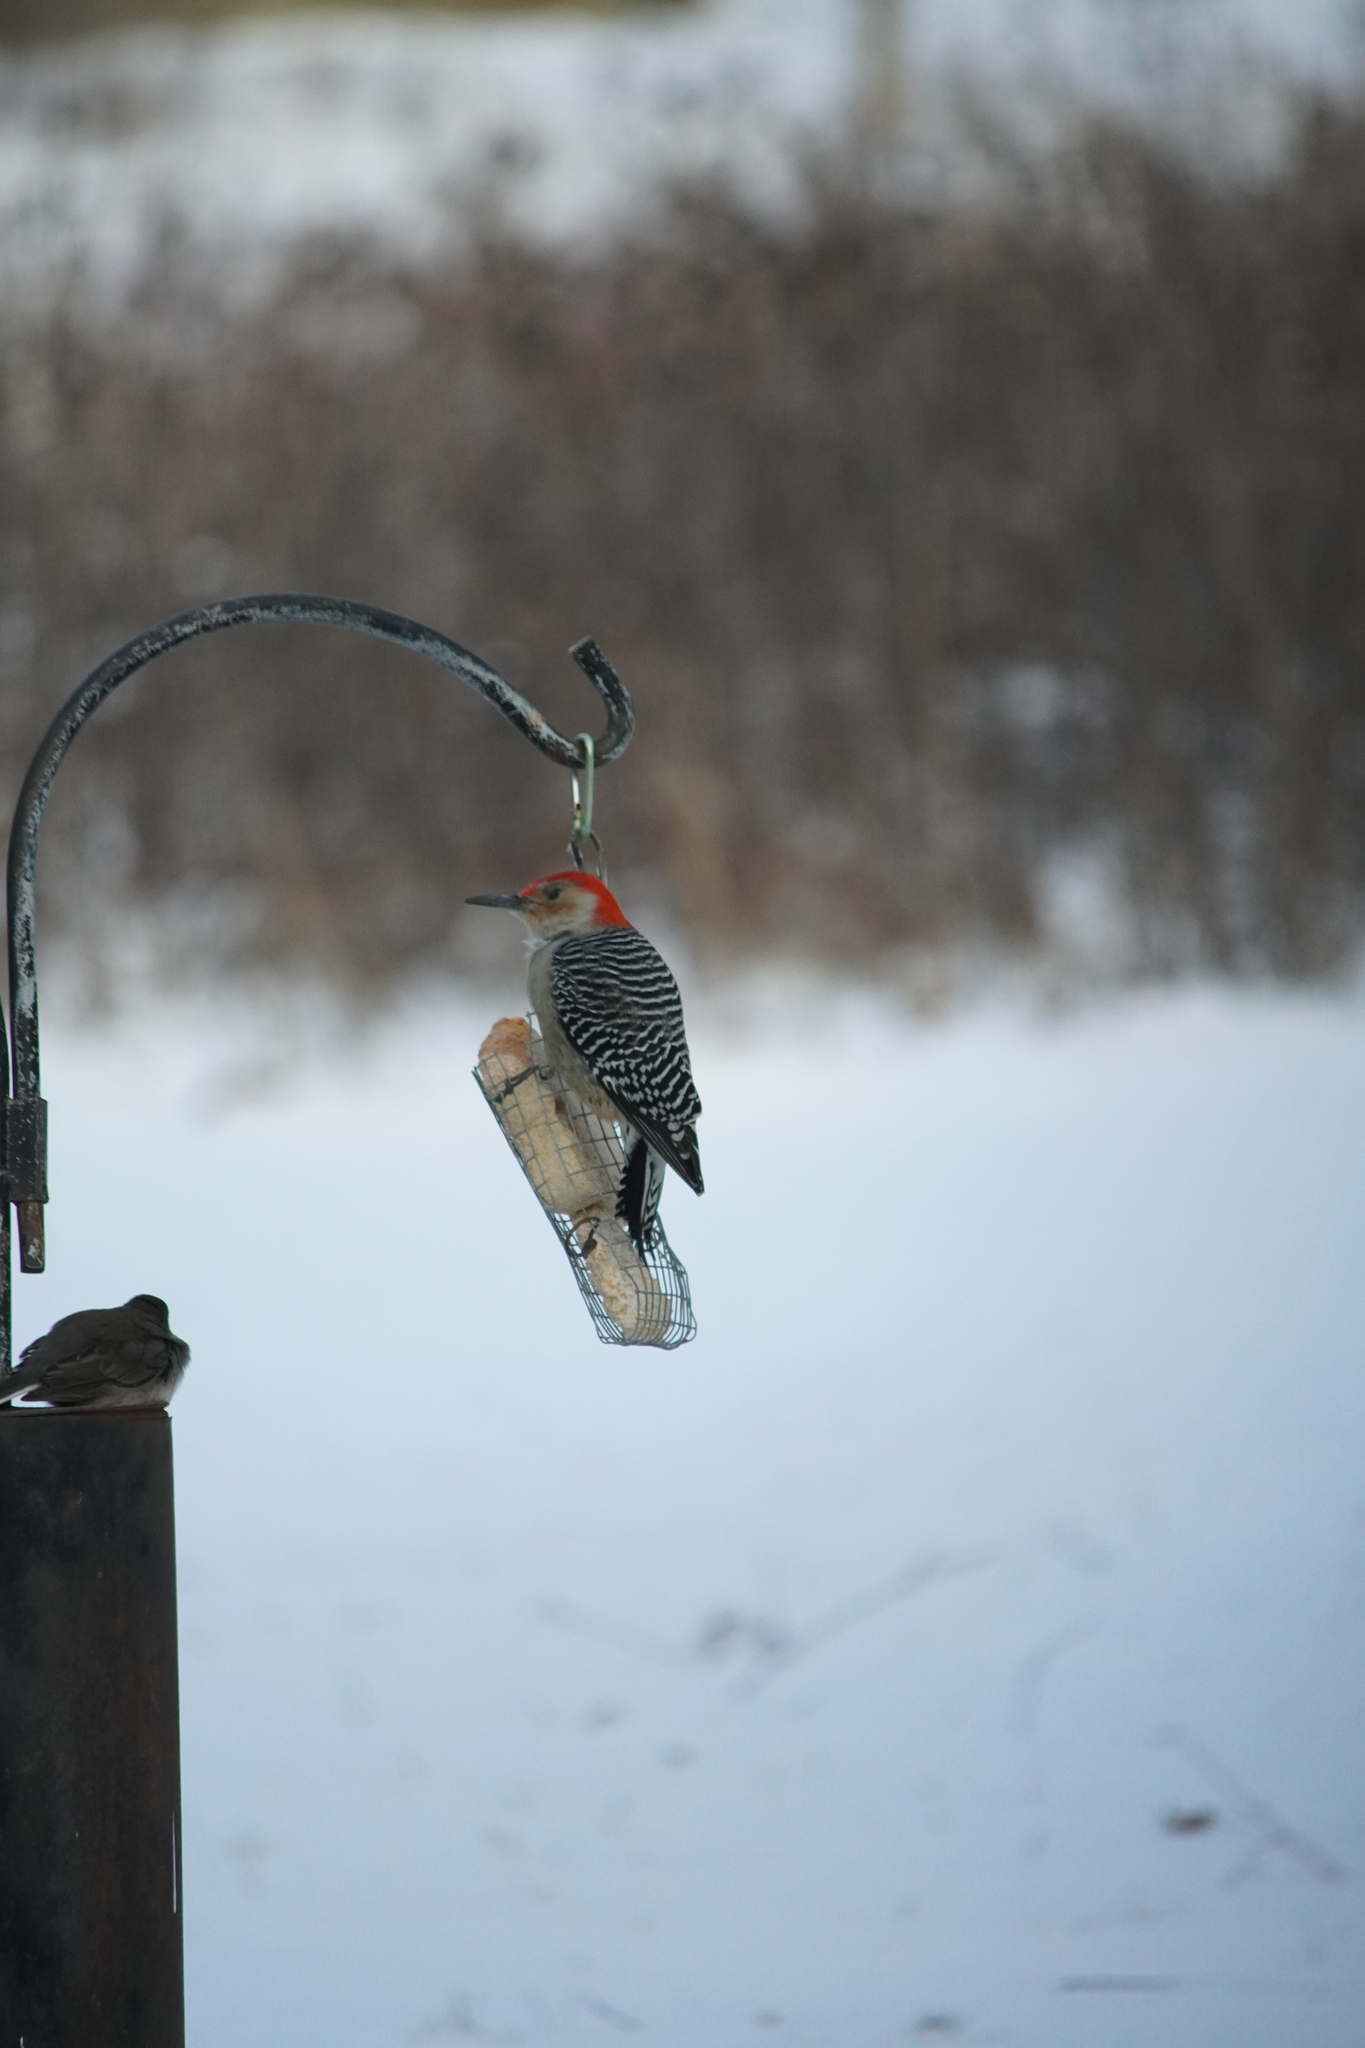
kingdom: Animalia
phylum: Chordata
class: Aves
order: Piciformes
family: Picidae
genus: Melanerpes
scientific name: Melanerpes carolinus
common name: Red-bellied woodpecker
